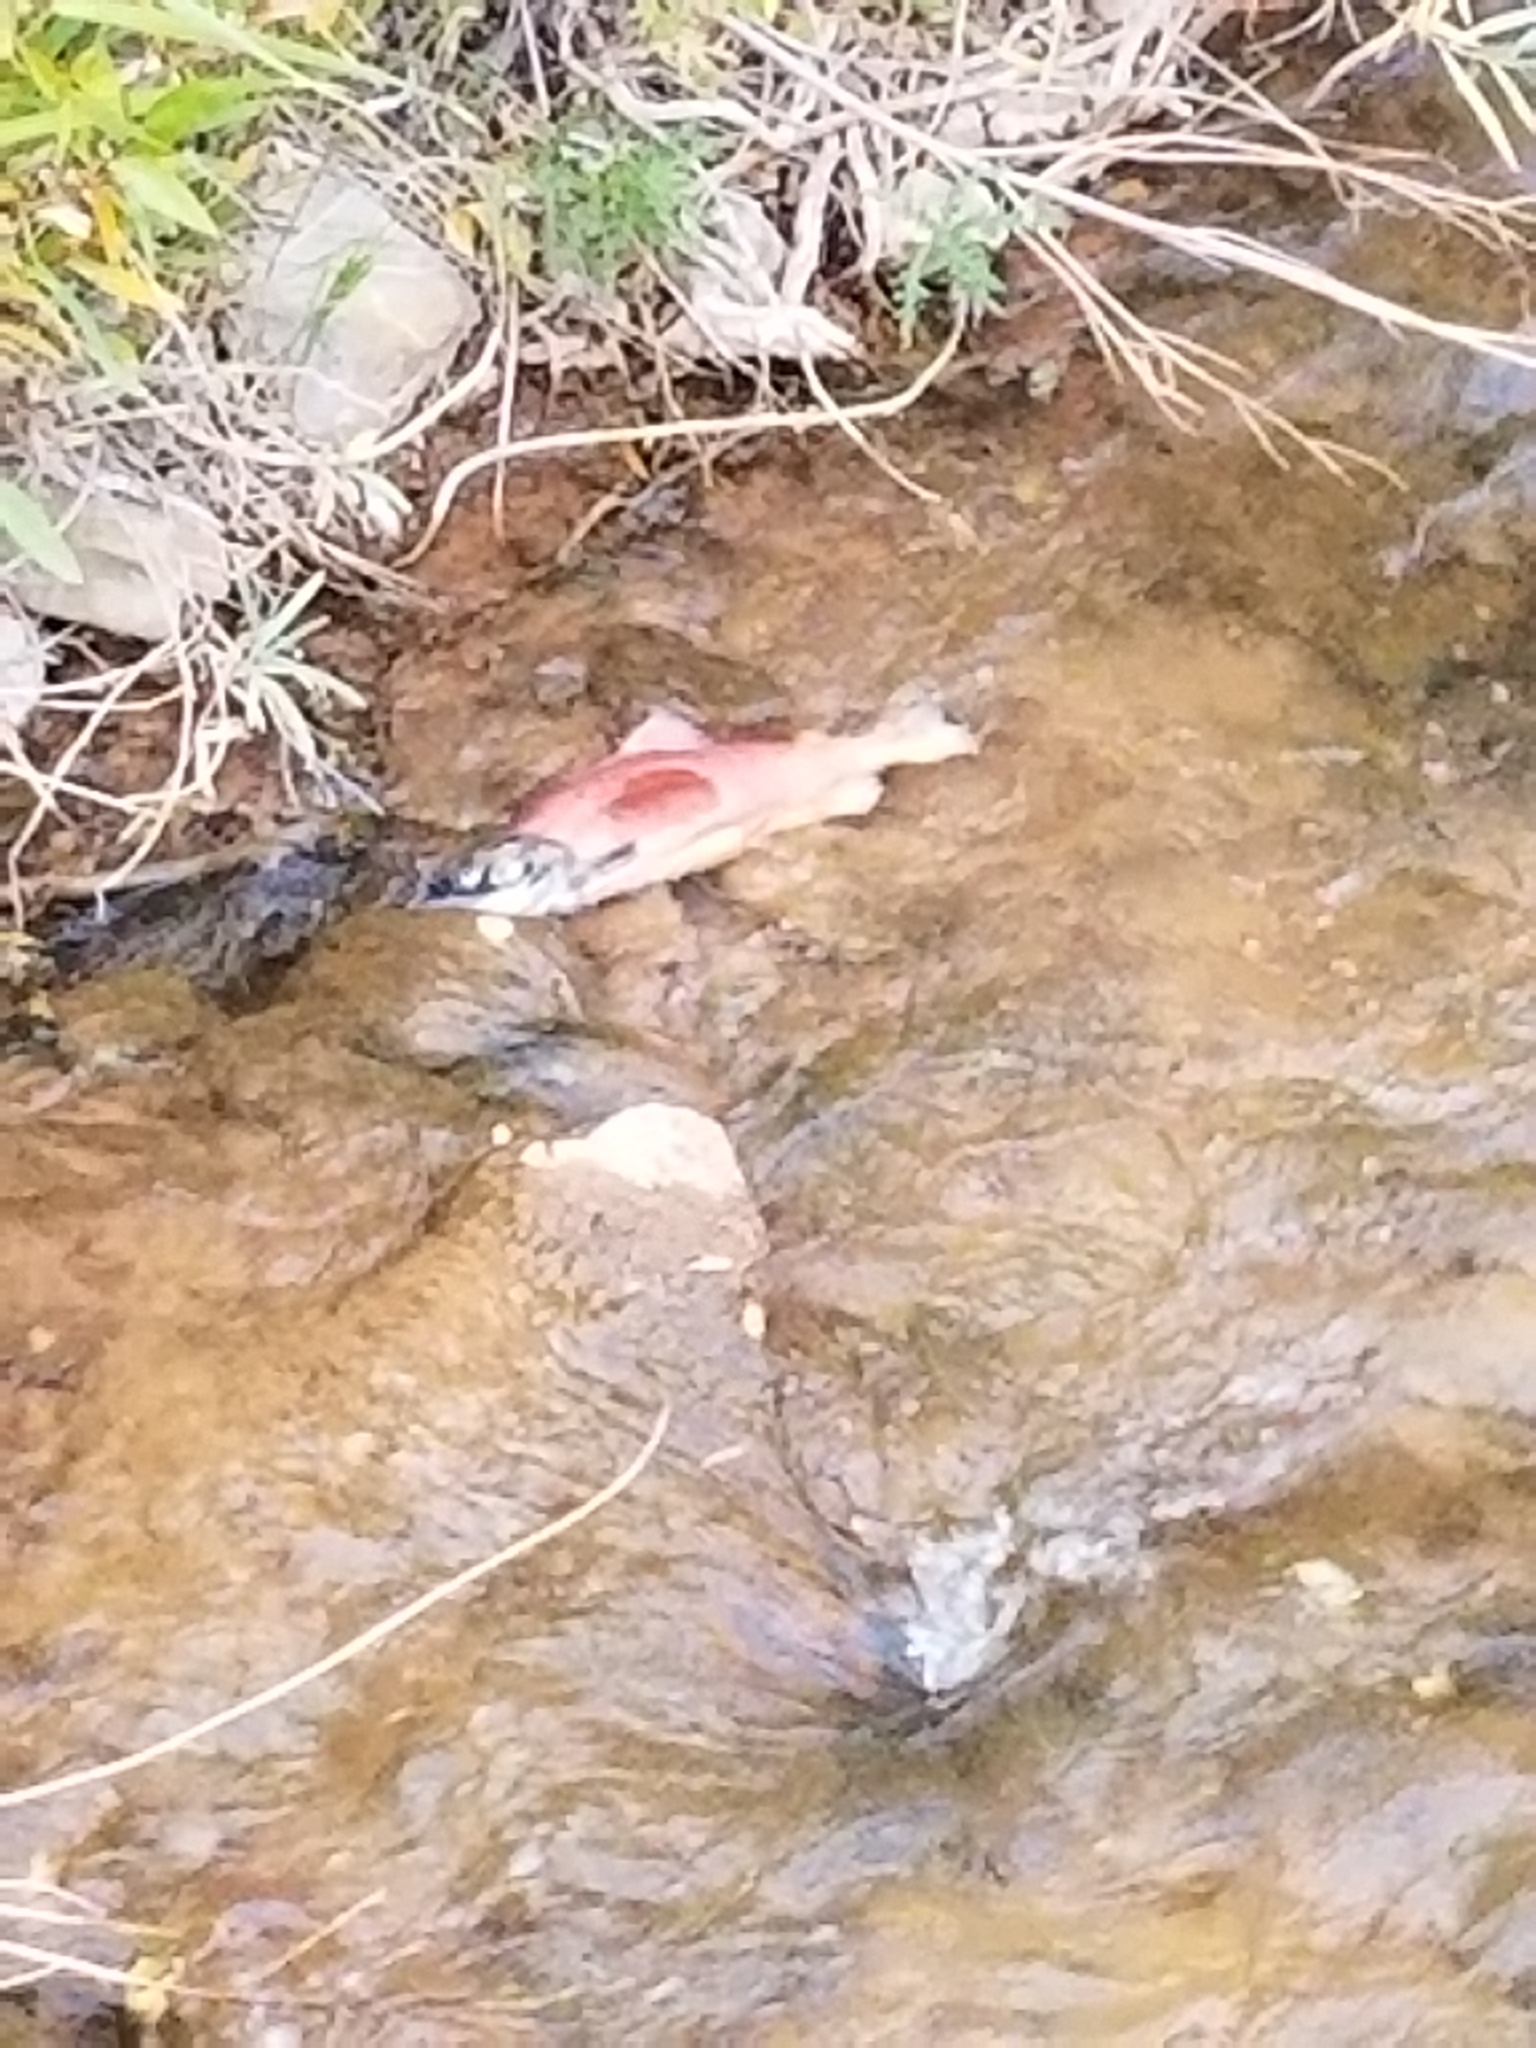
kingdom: Animalia
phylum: Chordata
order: Salmoniformes
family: Salmonidae
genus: Oncorhynchus
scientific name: Oncorhynchus nerka
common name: Sockeye salmon
